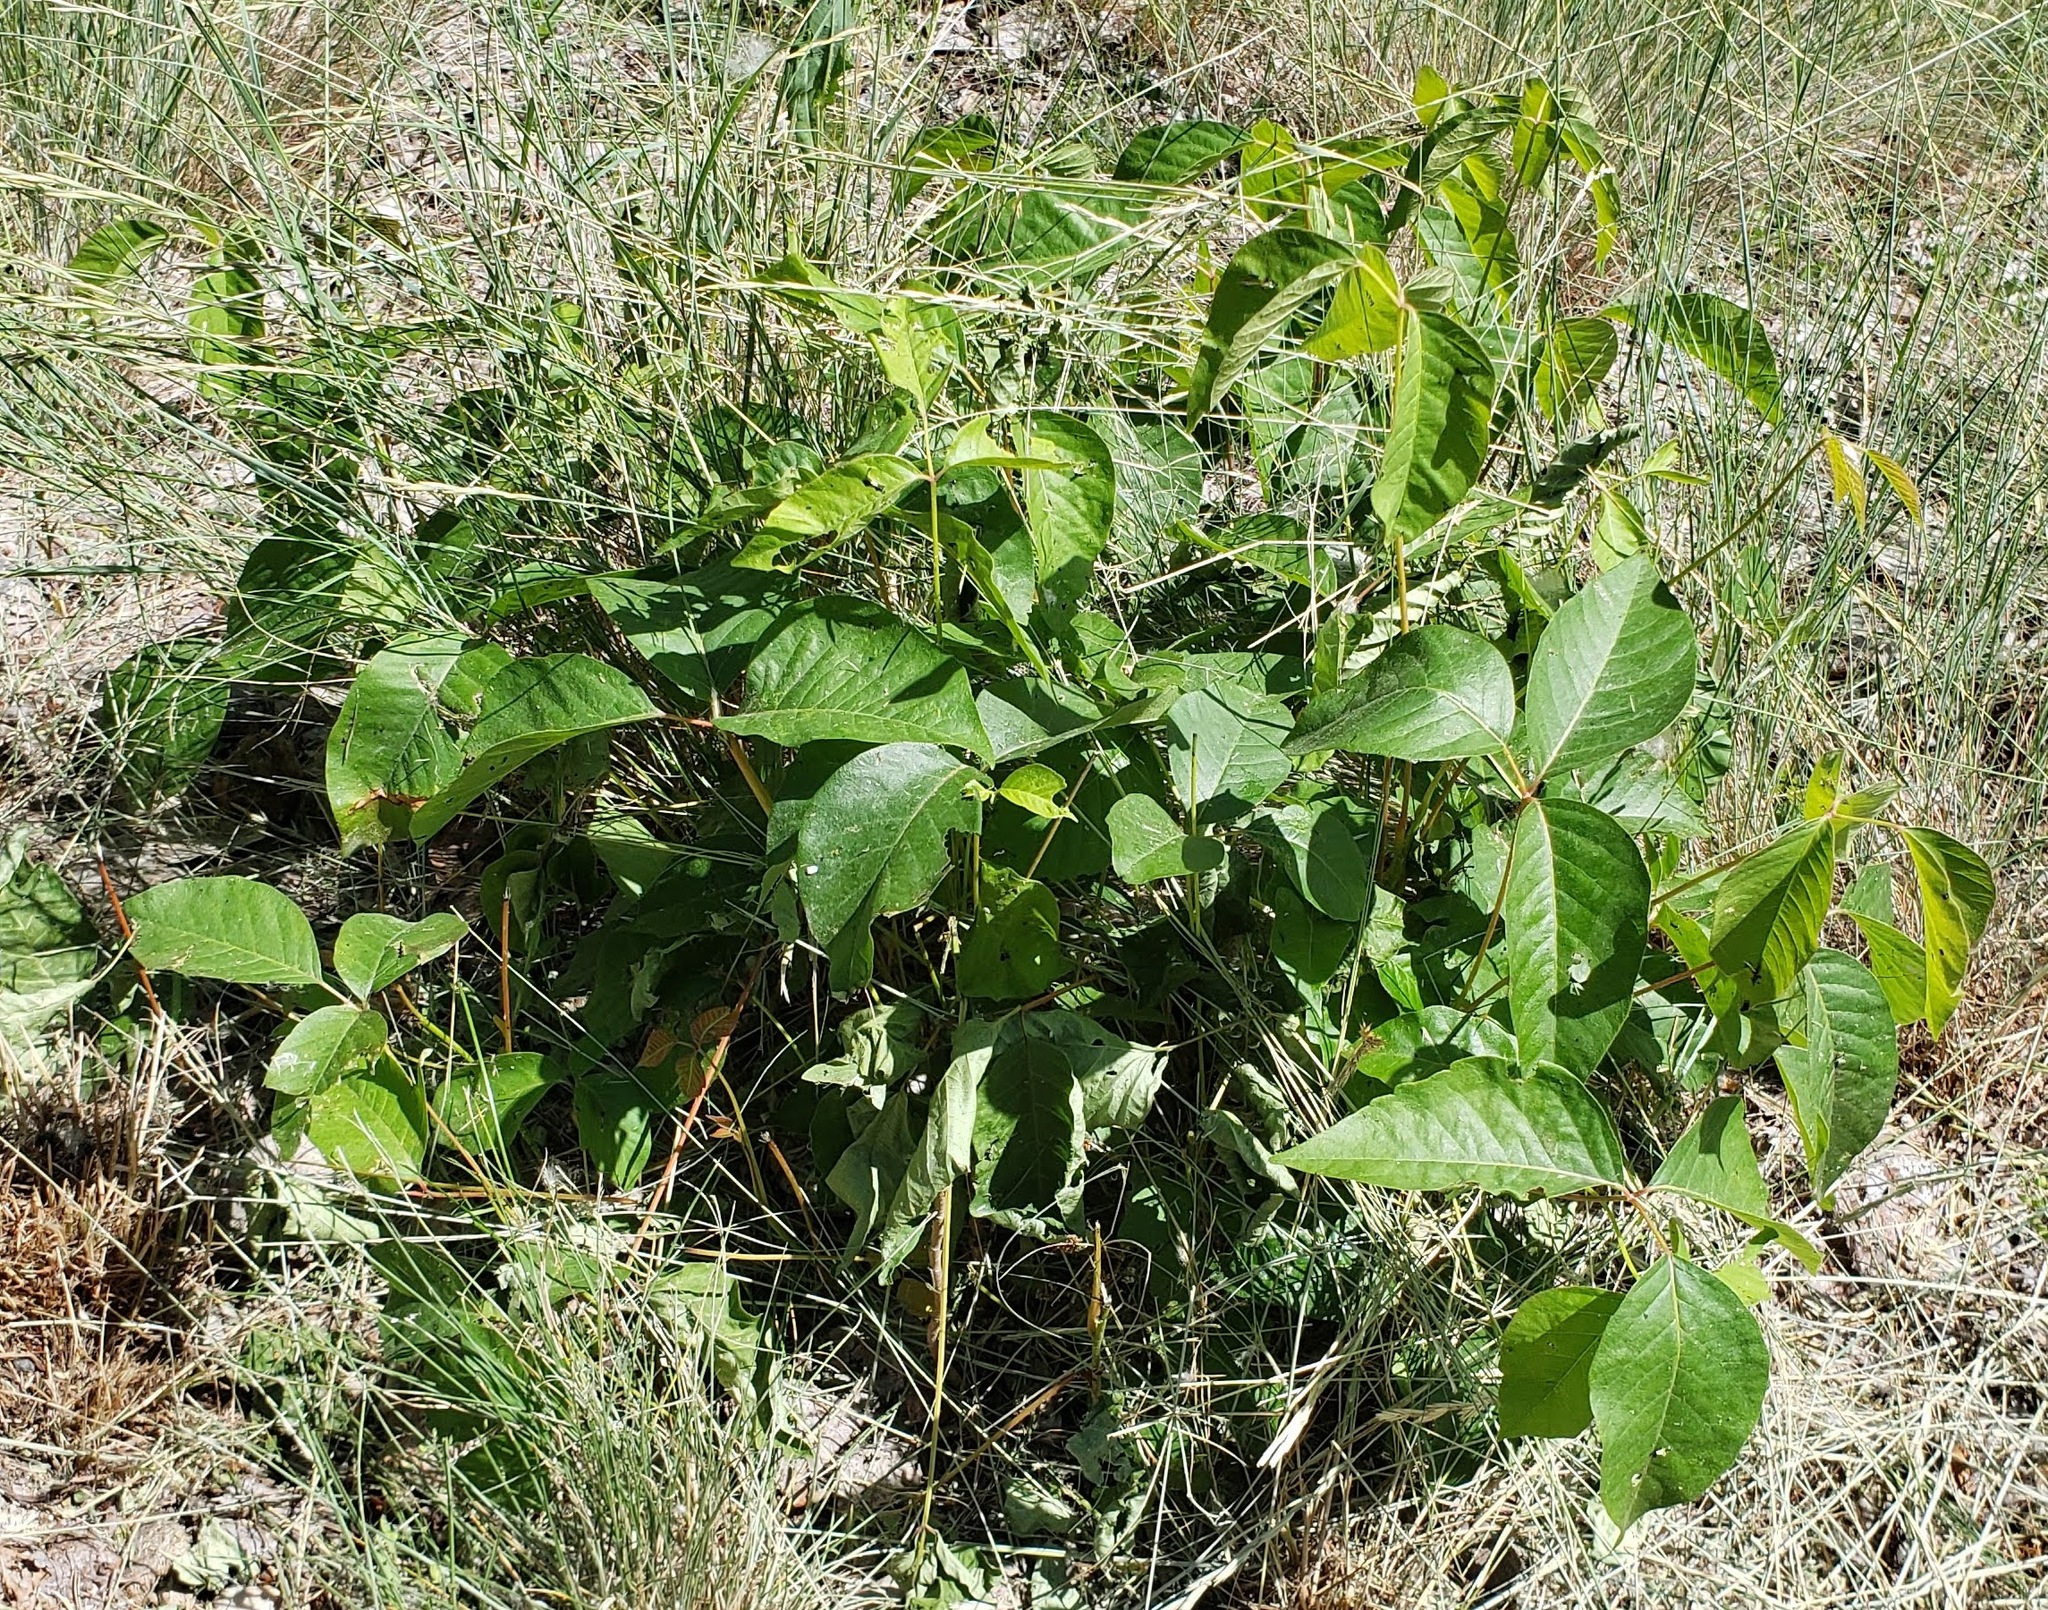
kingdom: Plantae
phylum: Tracheophyta
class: Magnoliopsida
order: Sapindales
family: Anacardiaceae
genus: Toxicodendron
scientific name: Toxicodendron rydbergii
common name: Rydberg's poison-ivy
